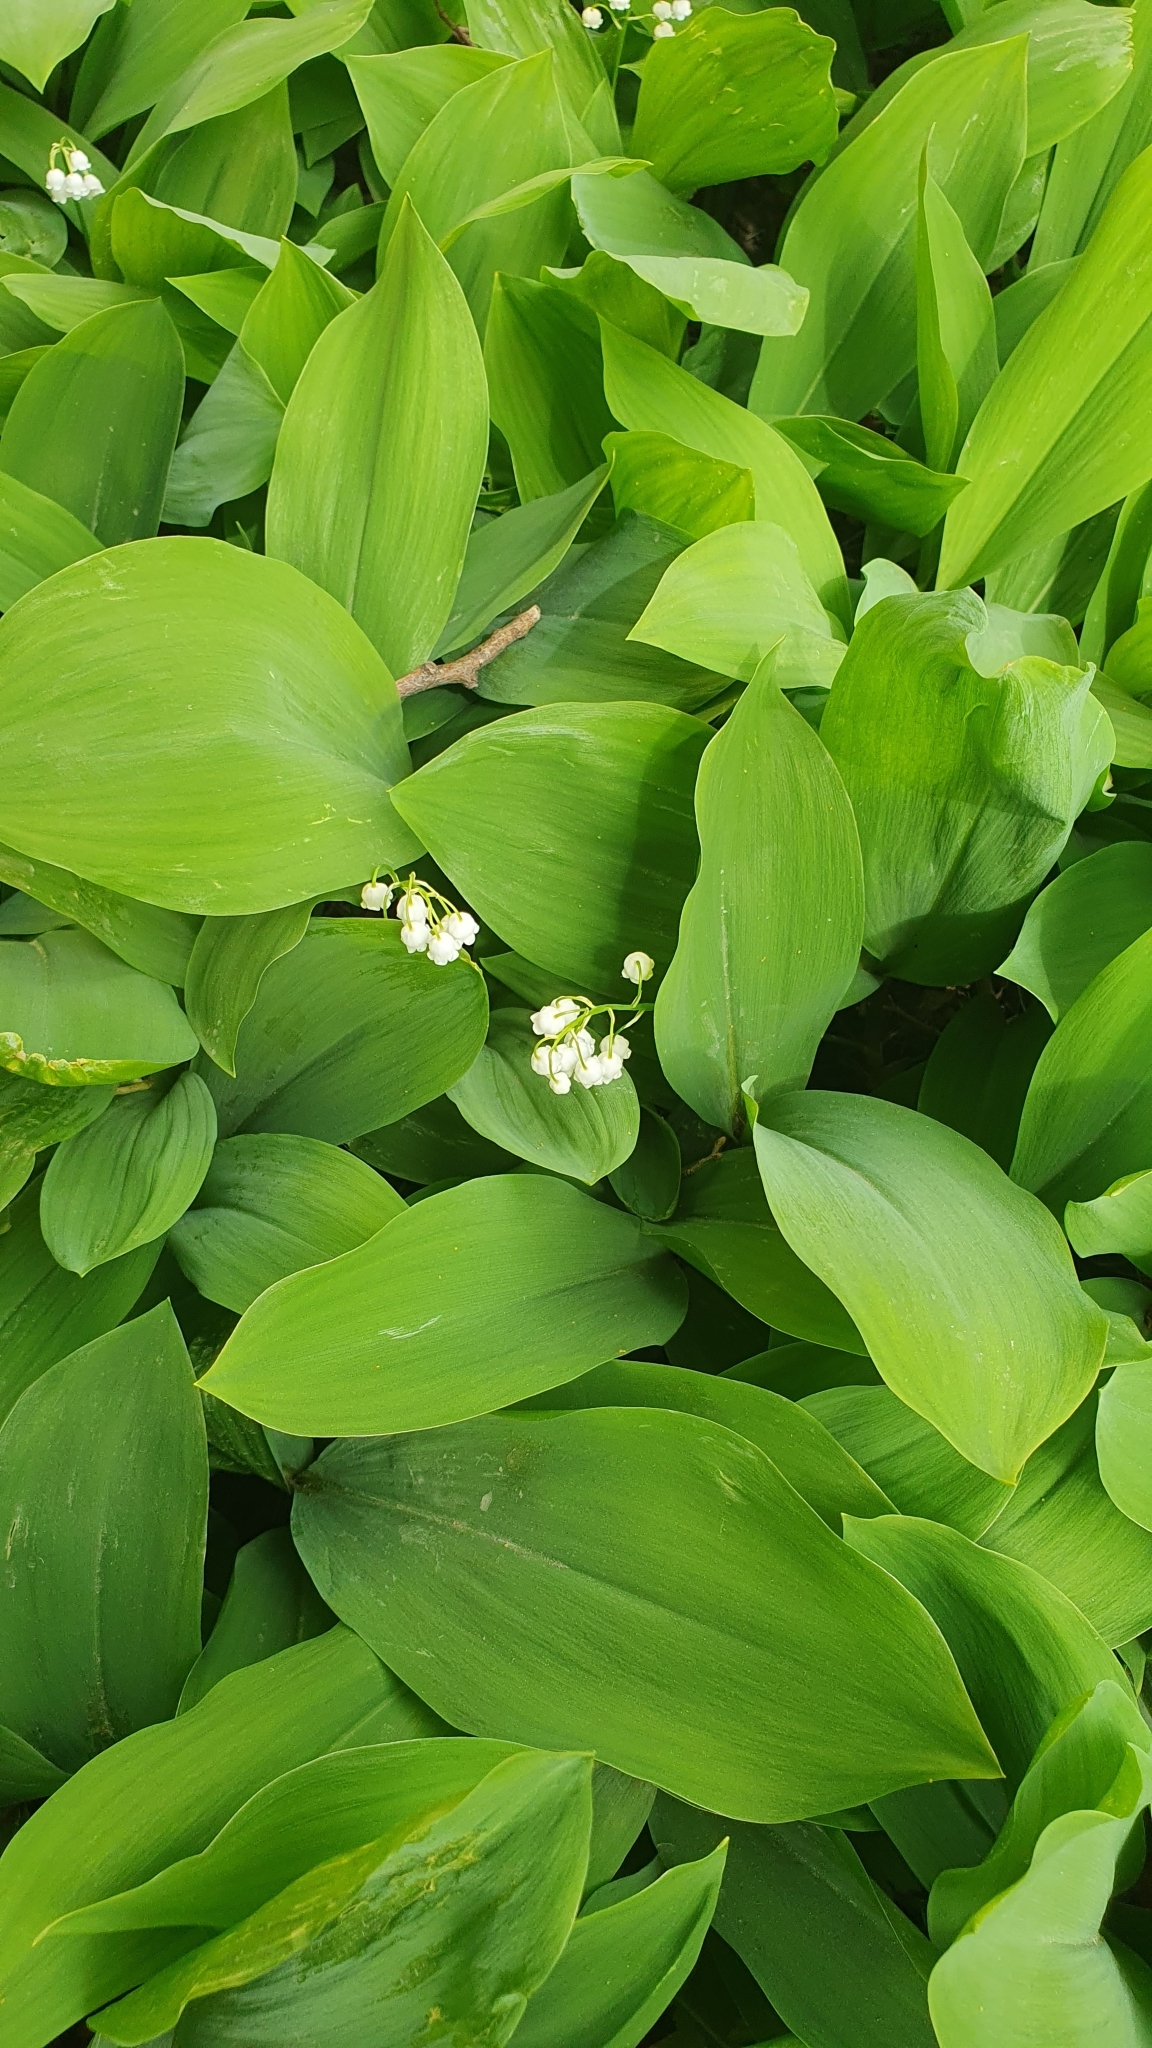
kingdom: Plantae
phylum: Tracheophyta
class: Liliopsida
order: Asparagales
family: Asparagaceae
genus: Convallaria
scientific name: Convallaria majalis
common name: Lily-of-the-valley
